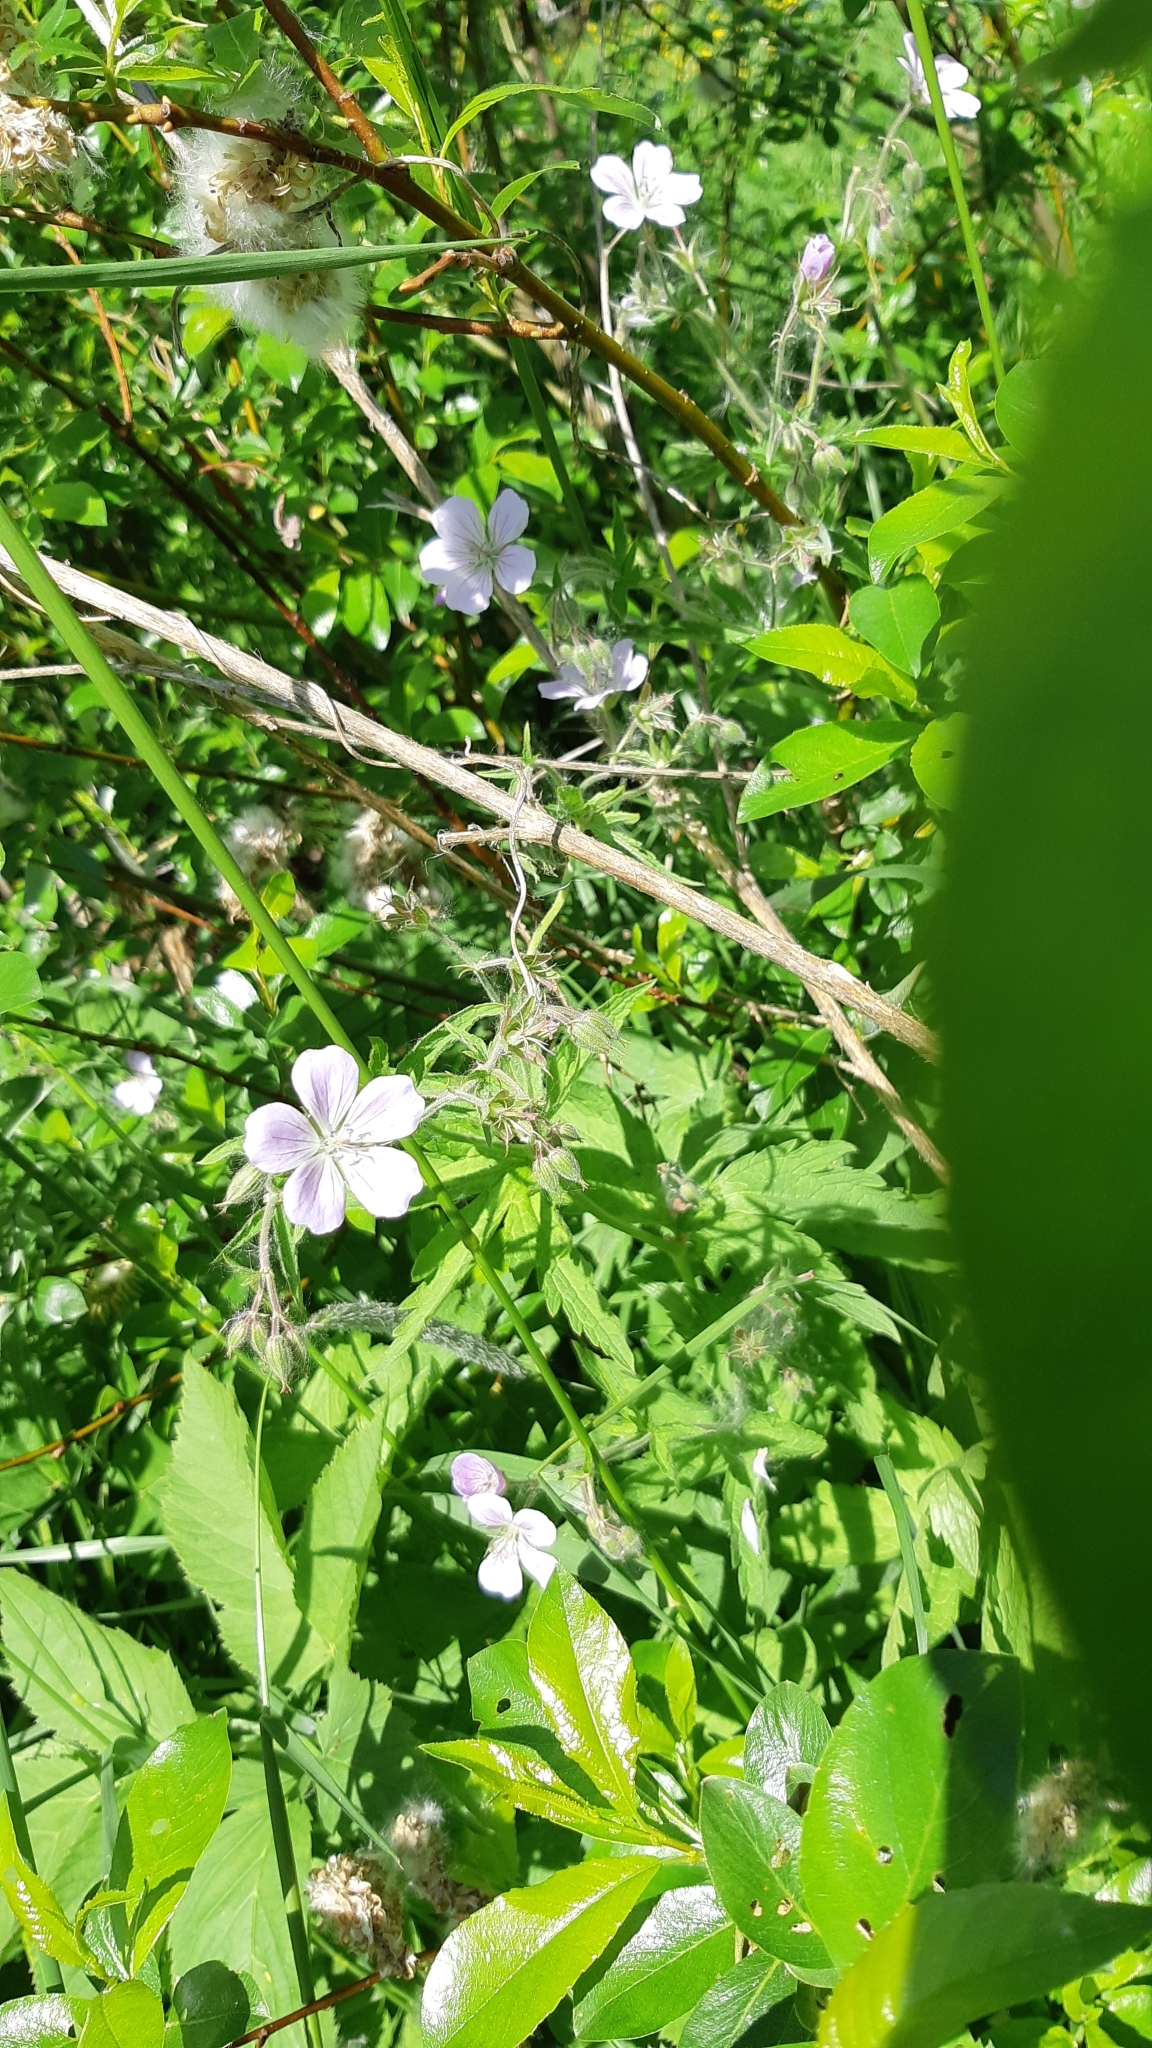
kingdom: Plantae
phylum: Tracheophyta
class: Magnoliopsida
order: Geraniales
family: Geraniaceae
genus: Geranium
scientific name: Geranium sylvaticum
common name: Wood crane's-bill
